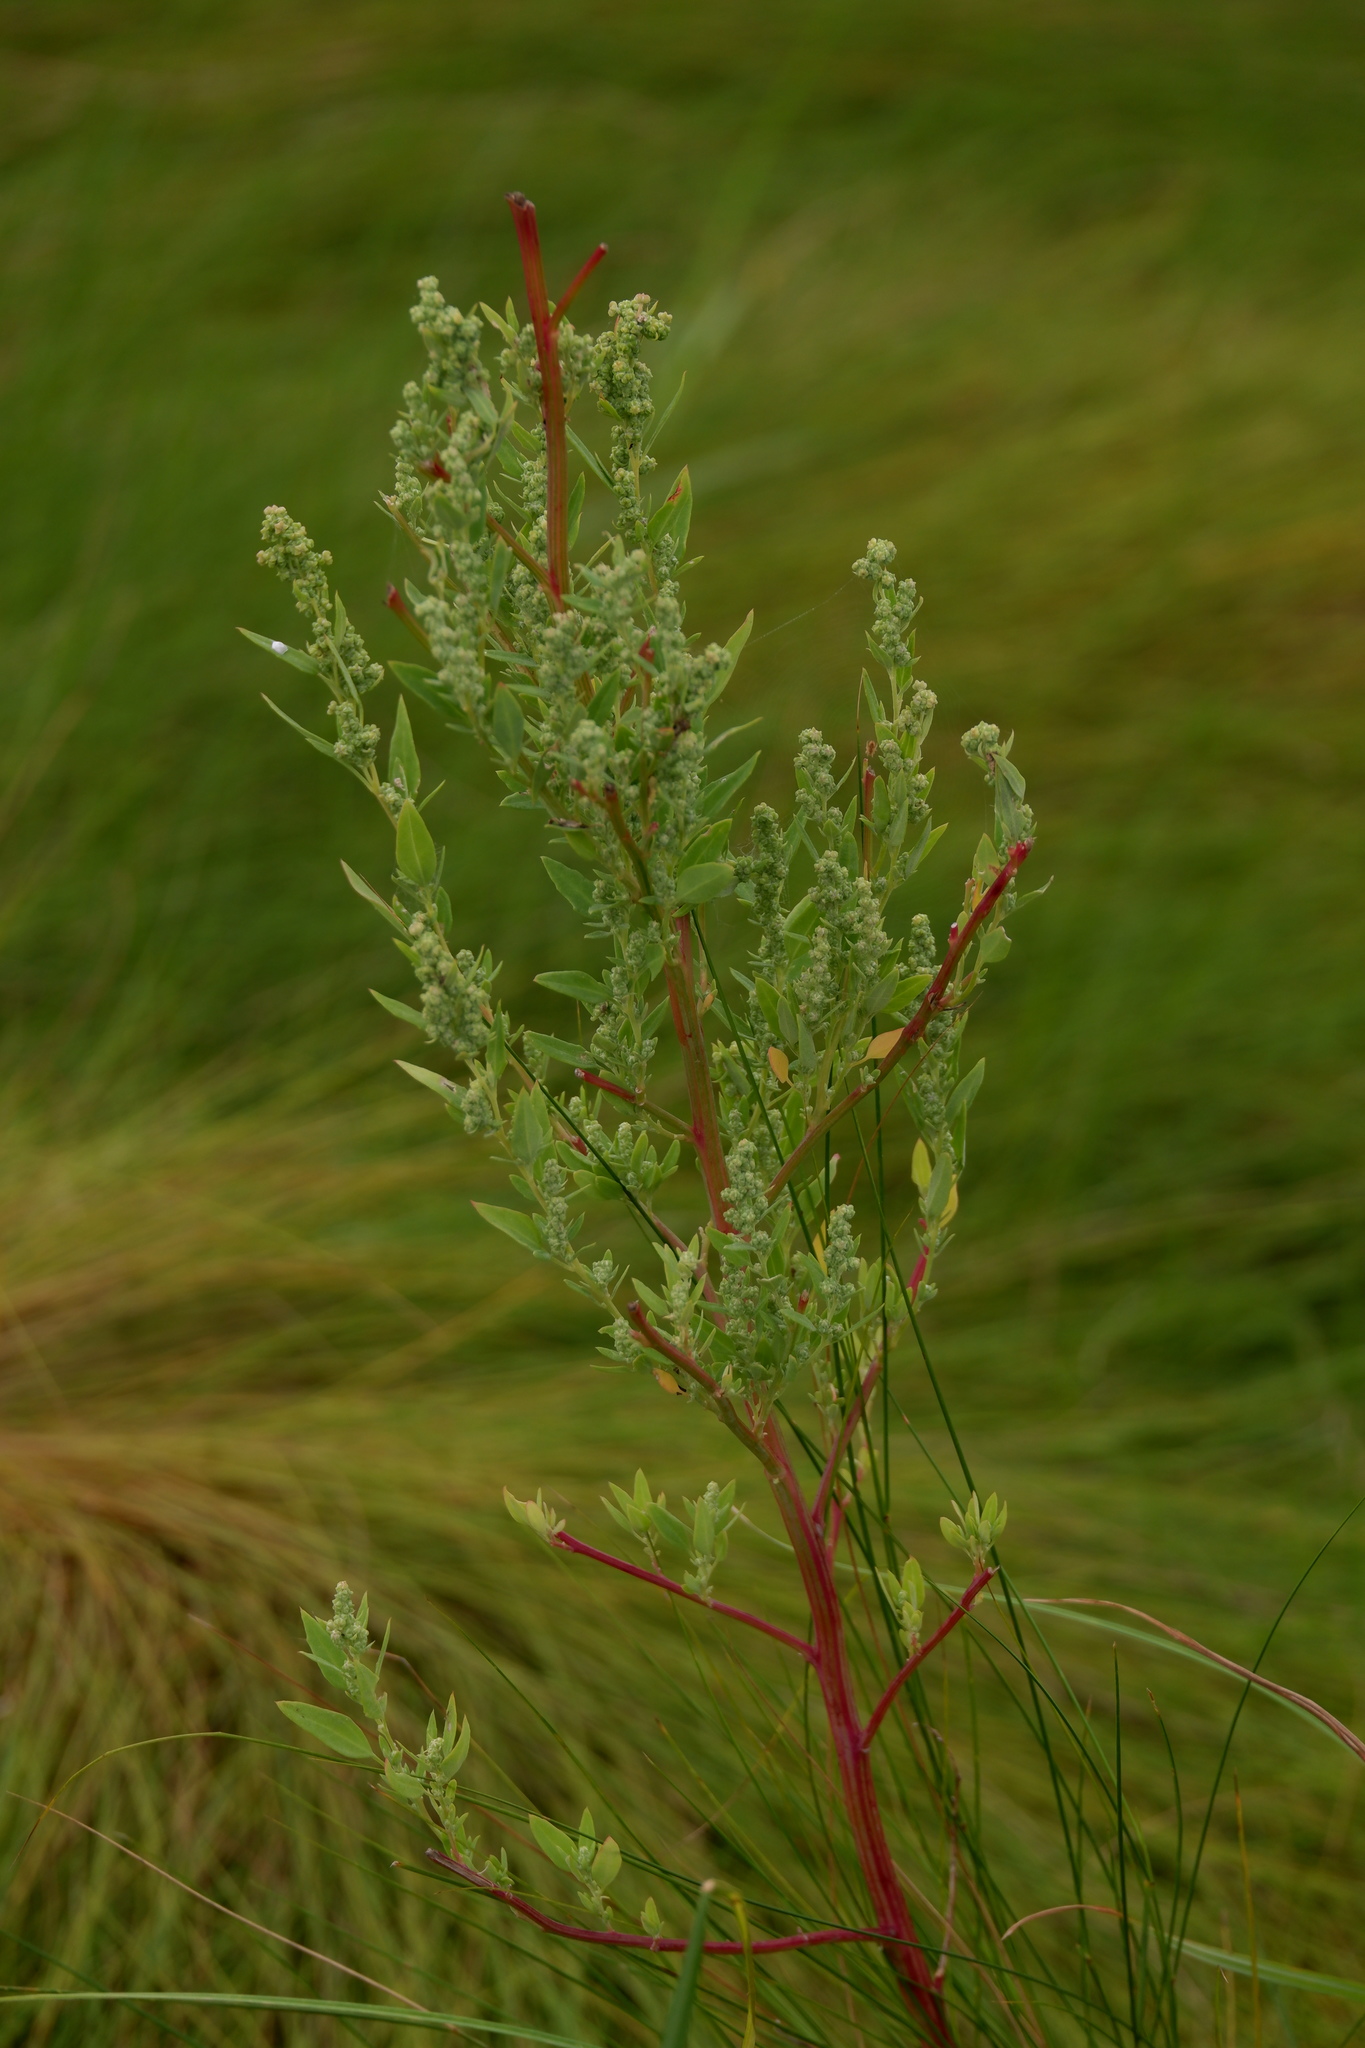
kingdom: Plantae
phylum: Tracheophyta
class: Magnoliopsida
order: Caryophyllales
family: Amaranthaceae
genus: Chenopodium
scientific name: Chenopodium berlandieri
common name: Pit-seed goosefoot
